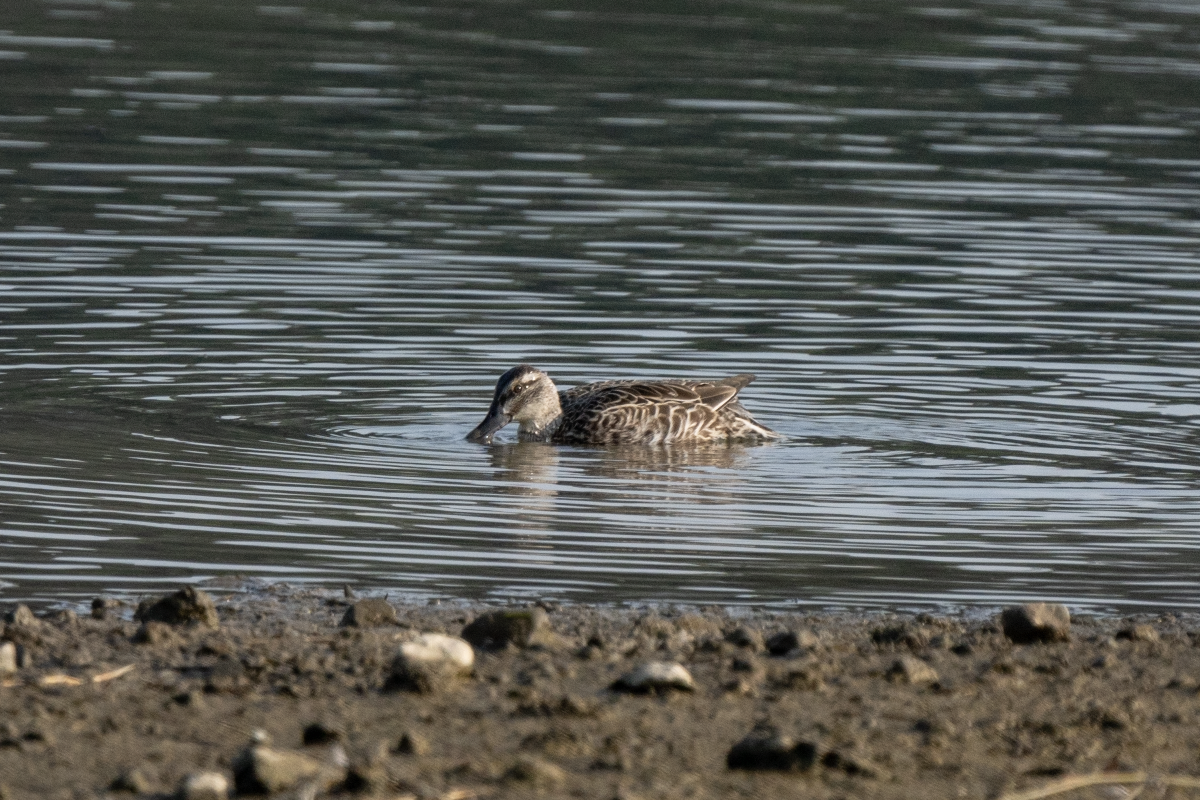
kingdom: Animalia
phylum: Chordata
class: Aves
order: Anseriformes
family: Anatidae
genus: Spatula
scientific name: Spatula querquedula
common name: Garganey
